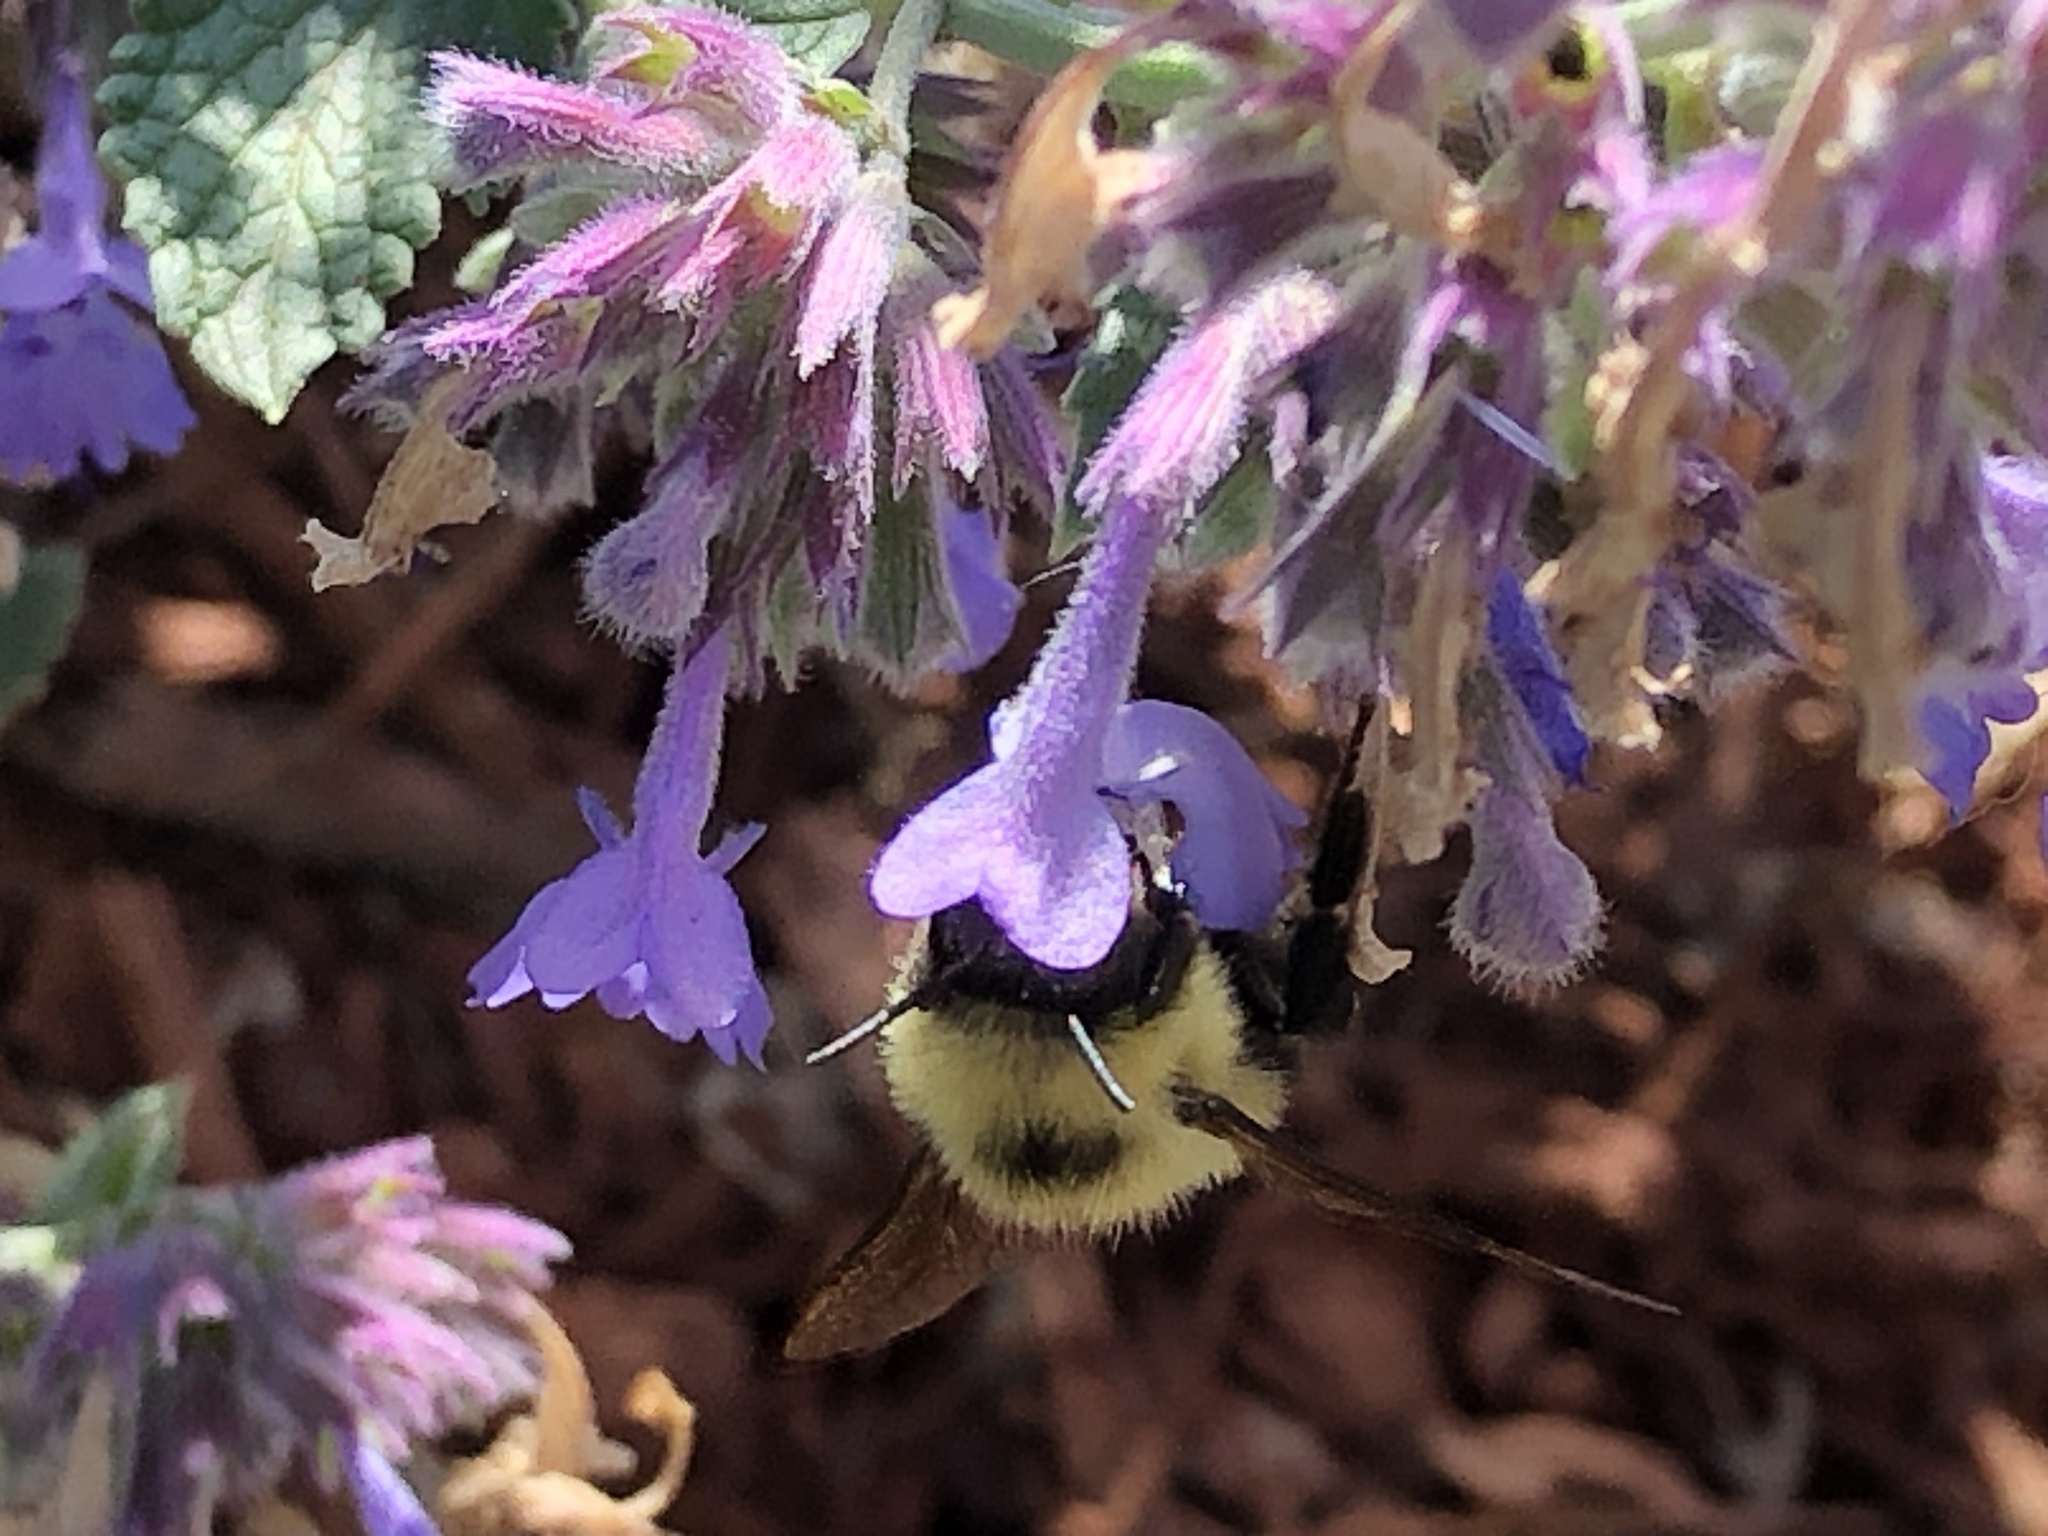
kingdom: Animalia
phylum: Arthropoda
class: Insecta
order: Hymenoptera
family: Apidae
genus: Bombus
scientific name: Bombus bimaculatus
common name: Two-spotted bumble bee
